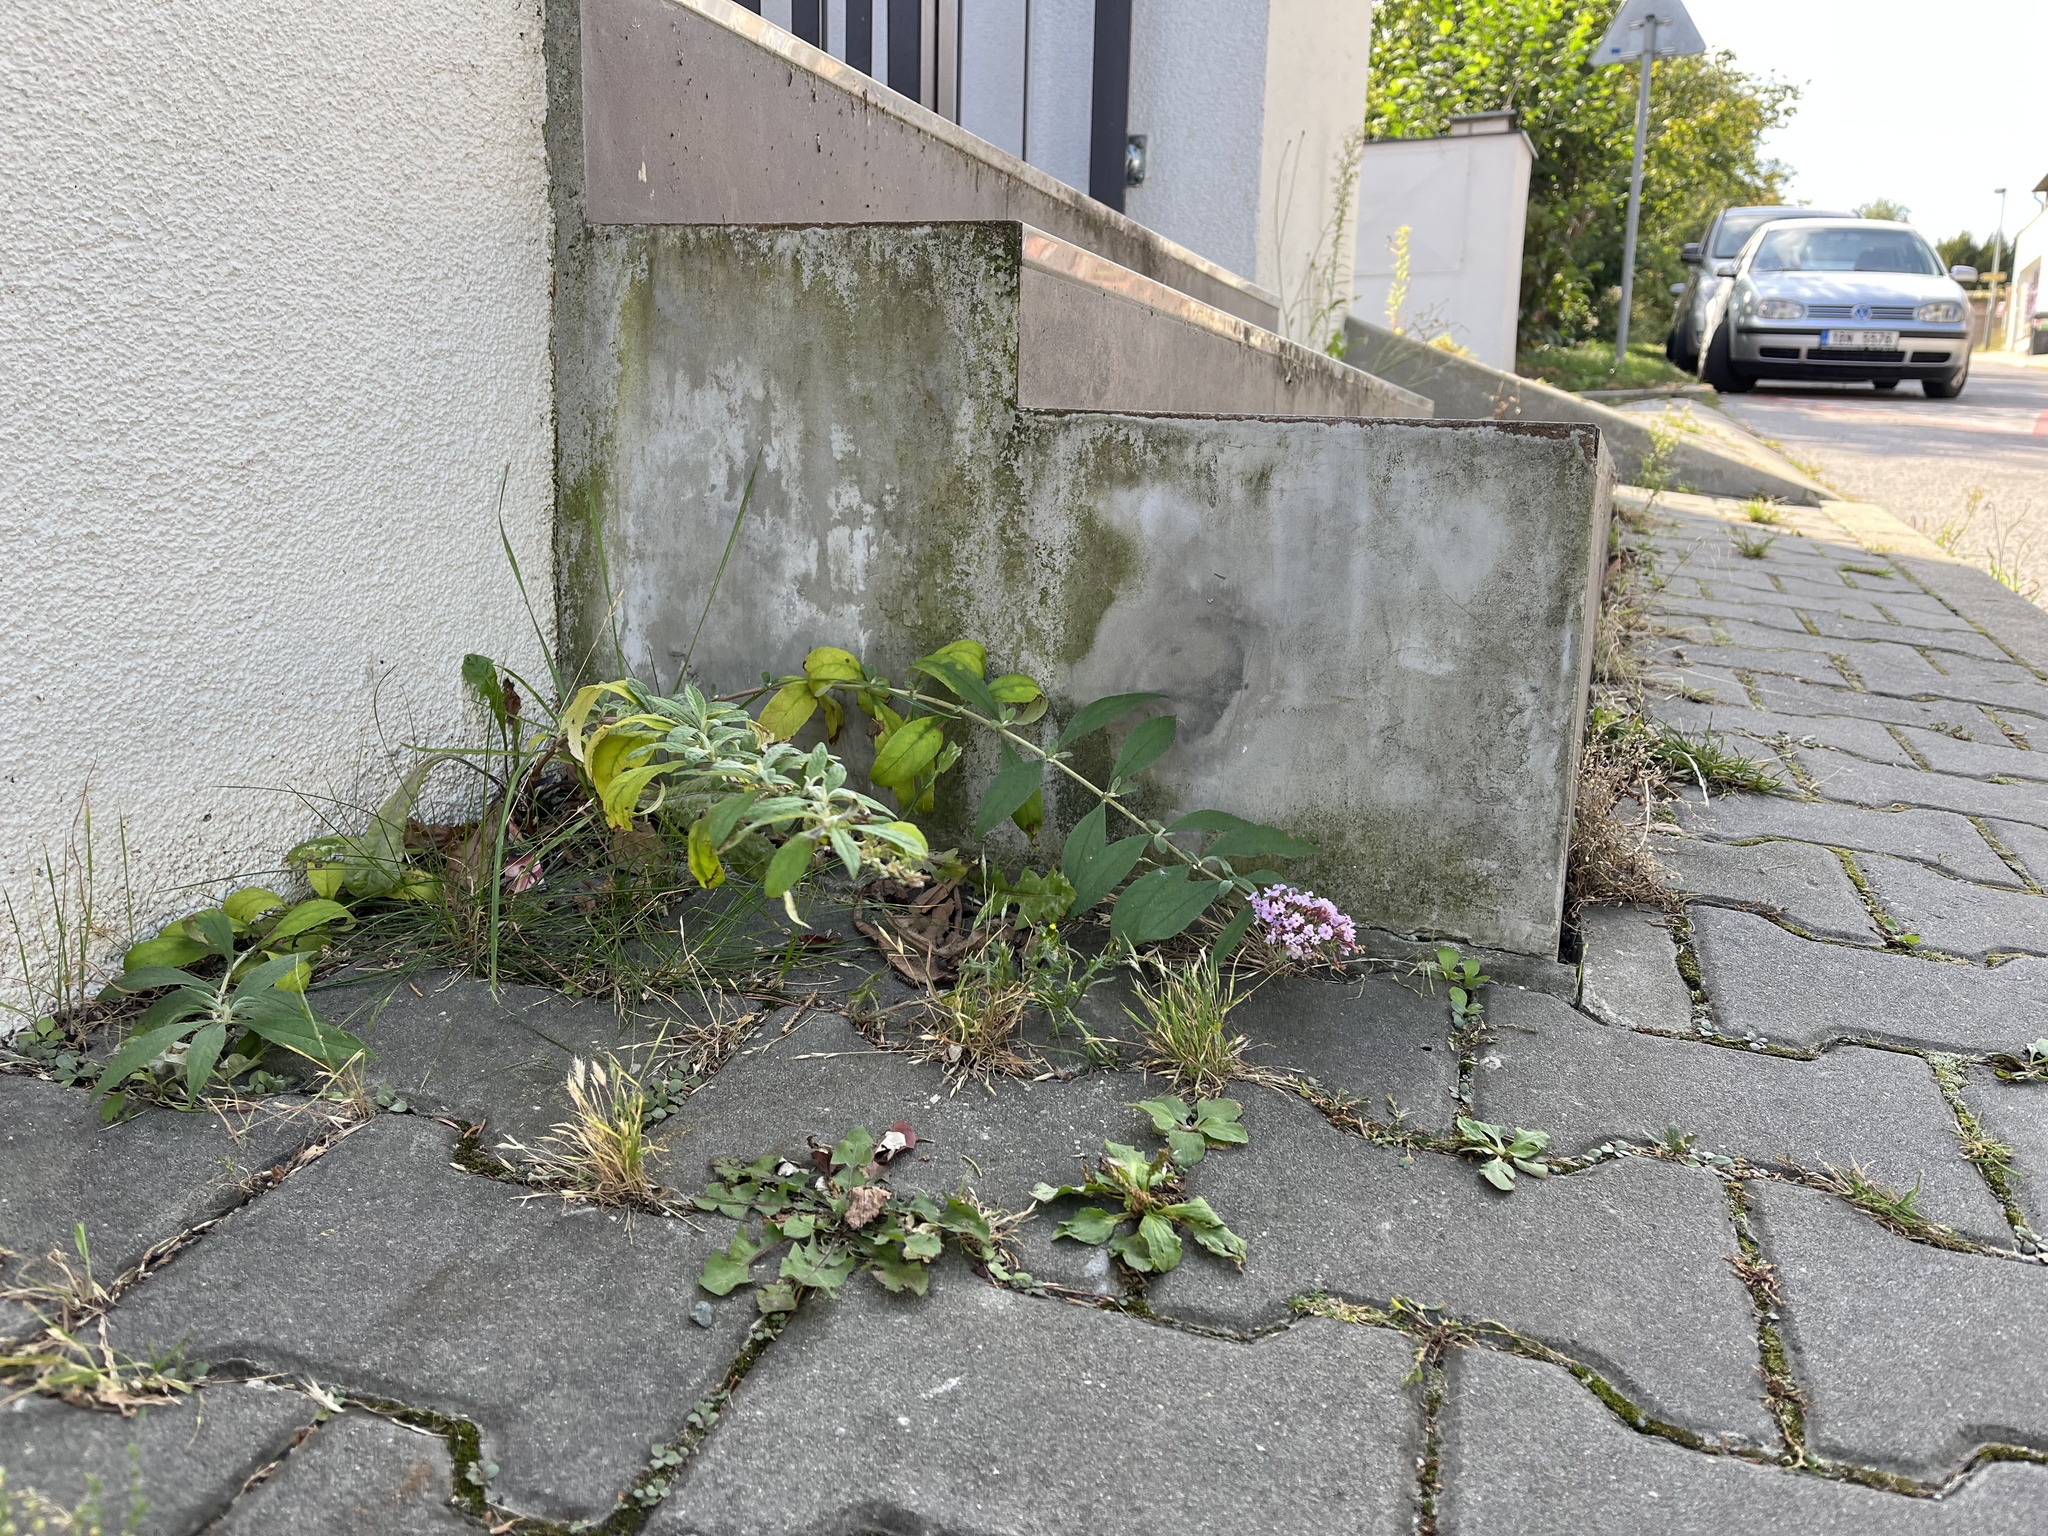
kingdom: Plantae
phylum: Tracheophyta
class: Magnoliopsida
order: Lamiales
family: Scrophulariaceae
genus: Buddleja
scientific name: Buddleja davidii
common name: Butterfly-bush
